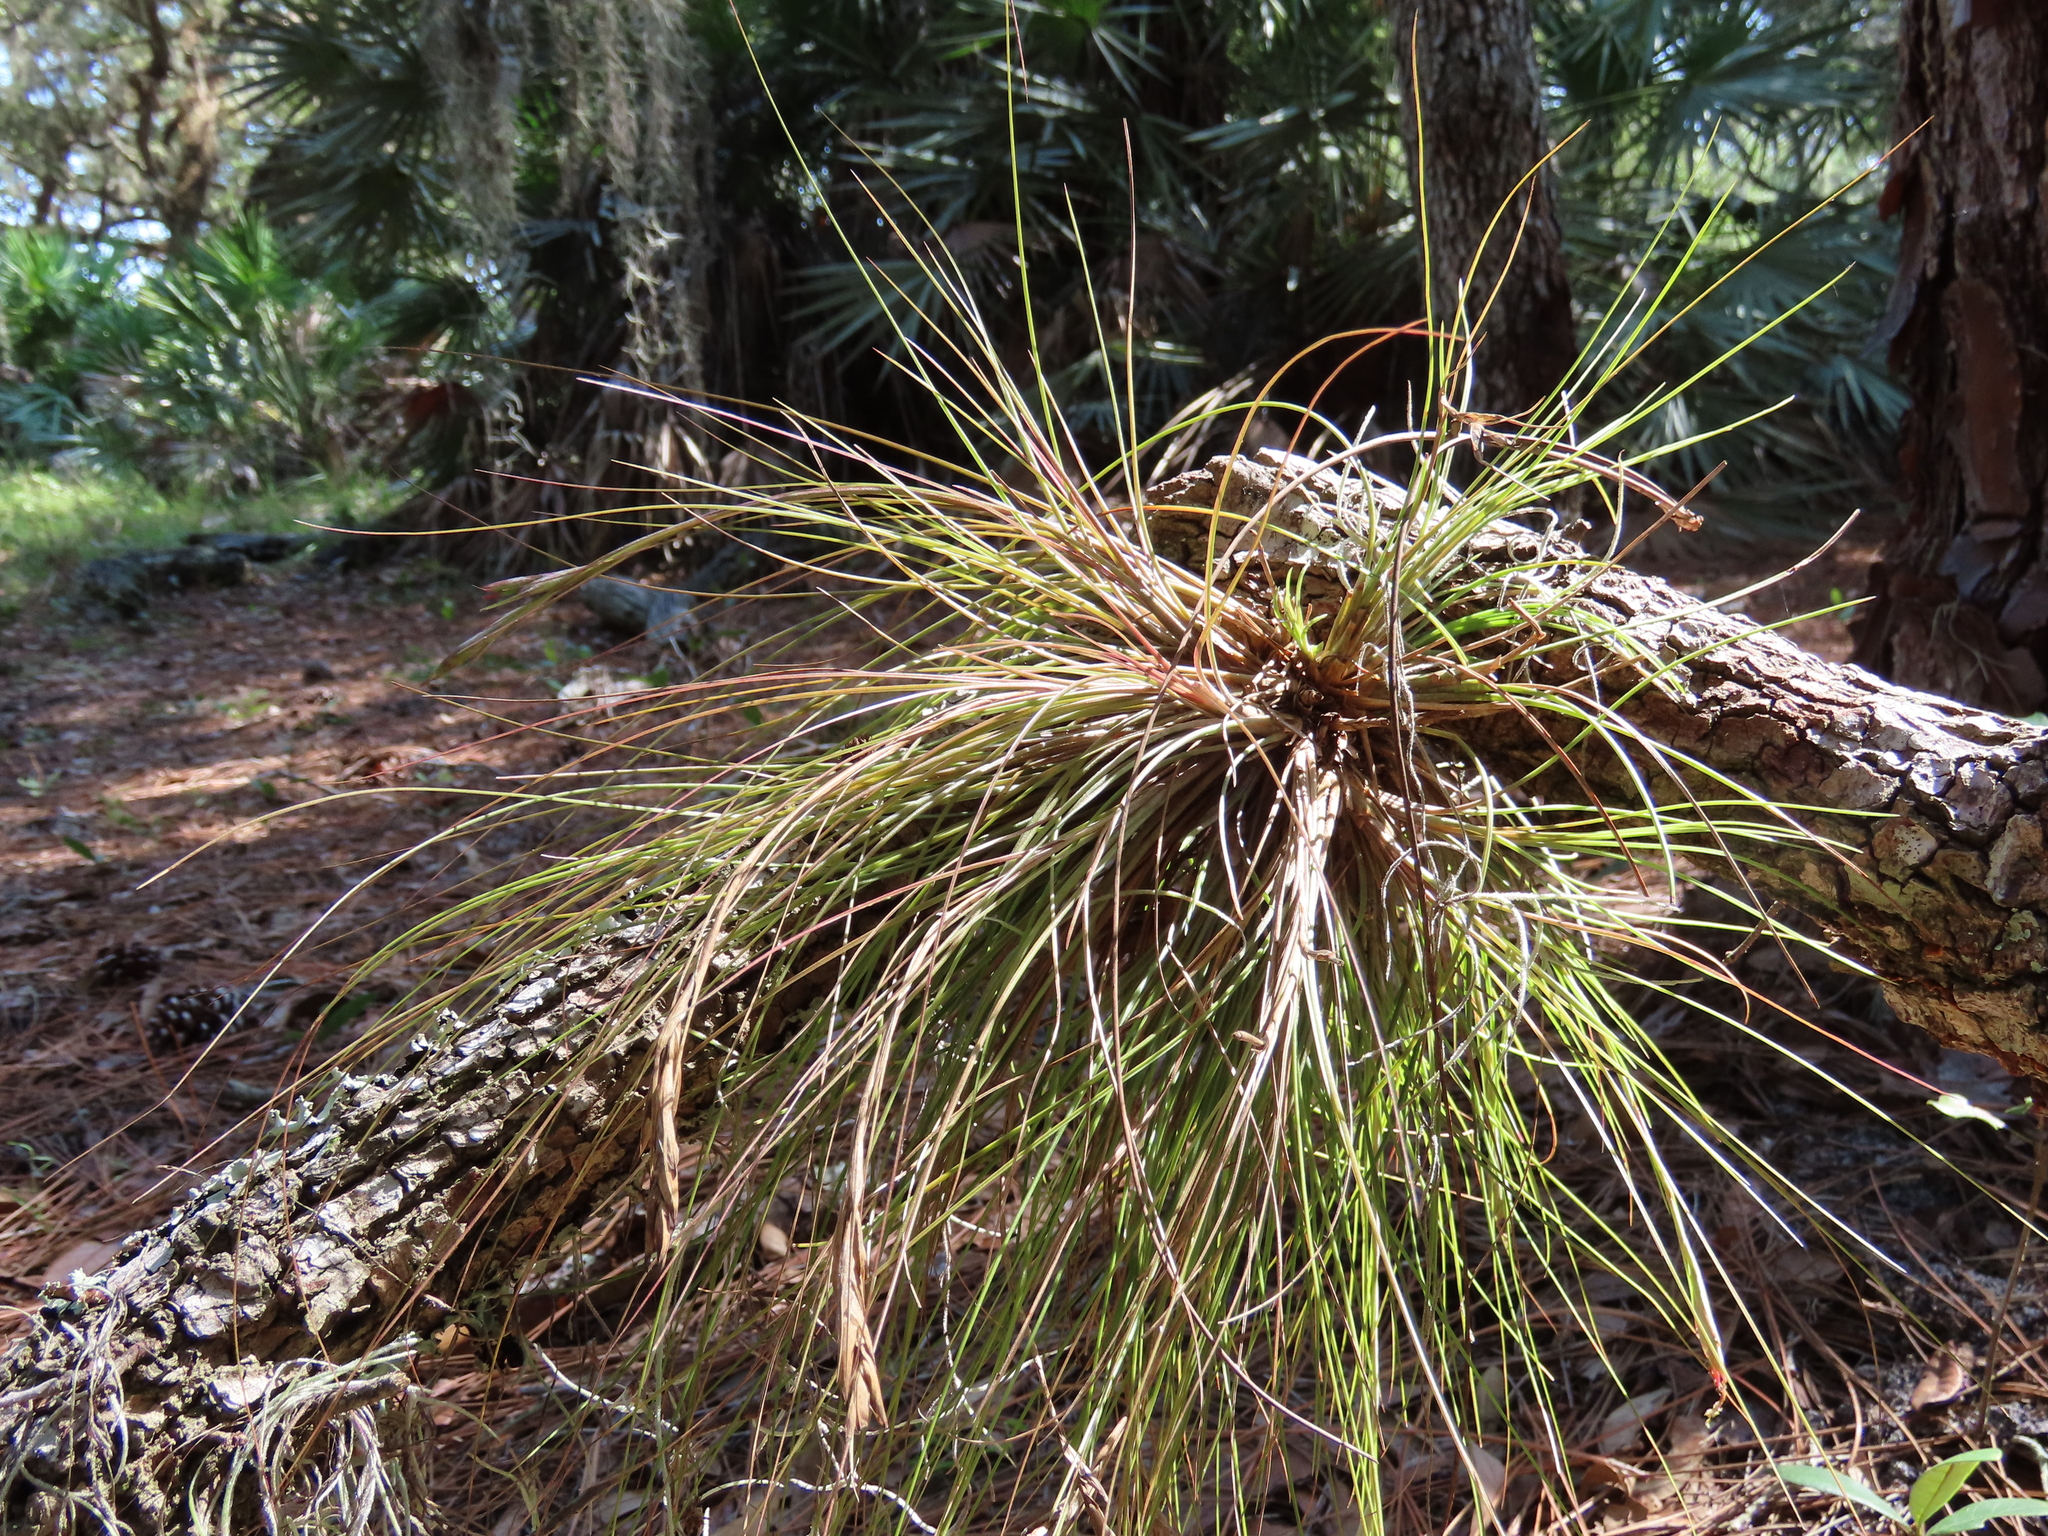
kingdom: Plantae
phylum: Tracheophyta
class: Liliopsida
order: Poales
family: Bromeliaceae
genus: Tillandsia
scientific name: Tillandsia setacea
